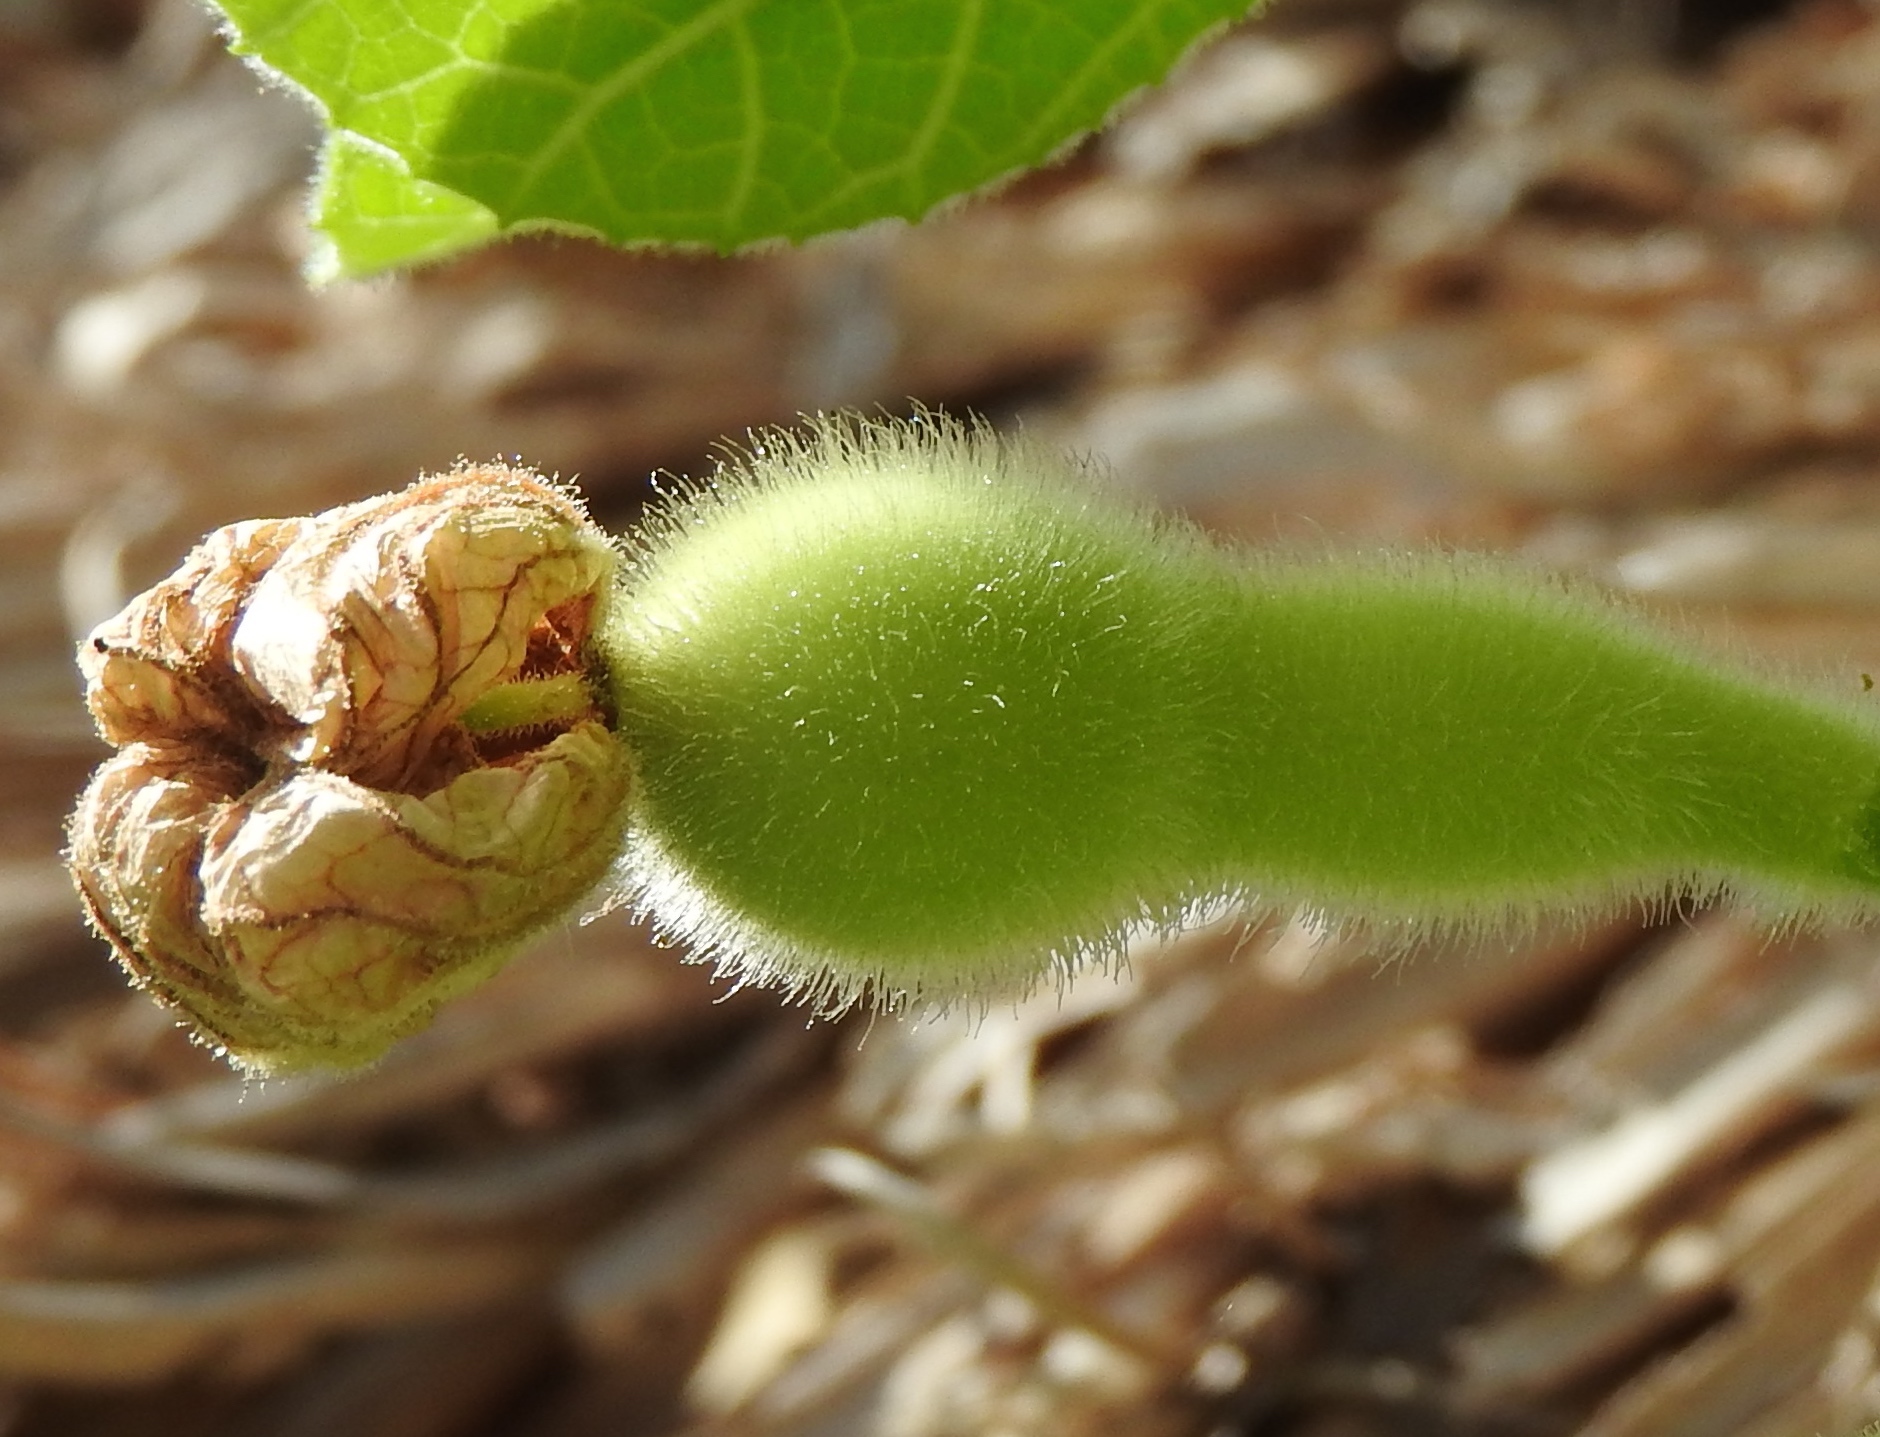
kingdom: Plantae
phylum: Tracheophyta
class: Magnoliopsida
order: Cucurbitales
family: Cucurbitaceae
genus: Lagenaria
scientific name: Lagenaria siceraria
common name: Bottle gourd
